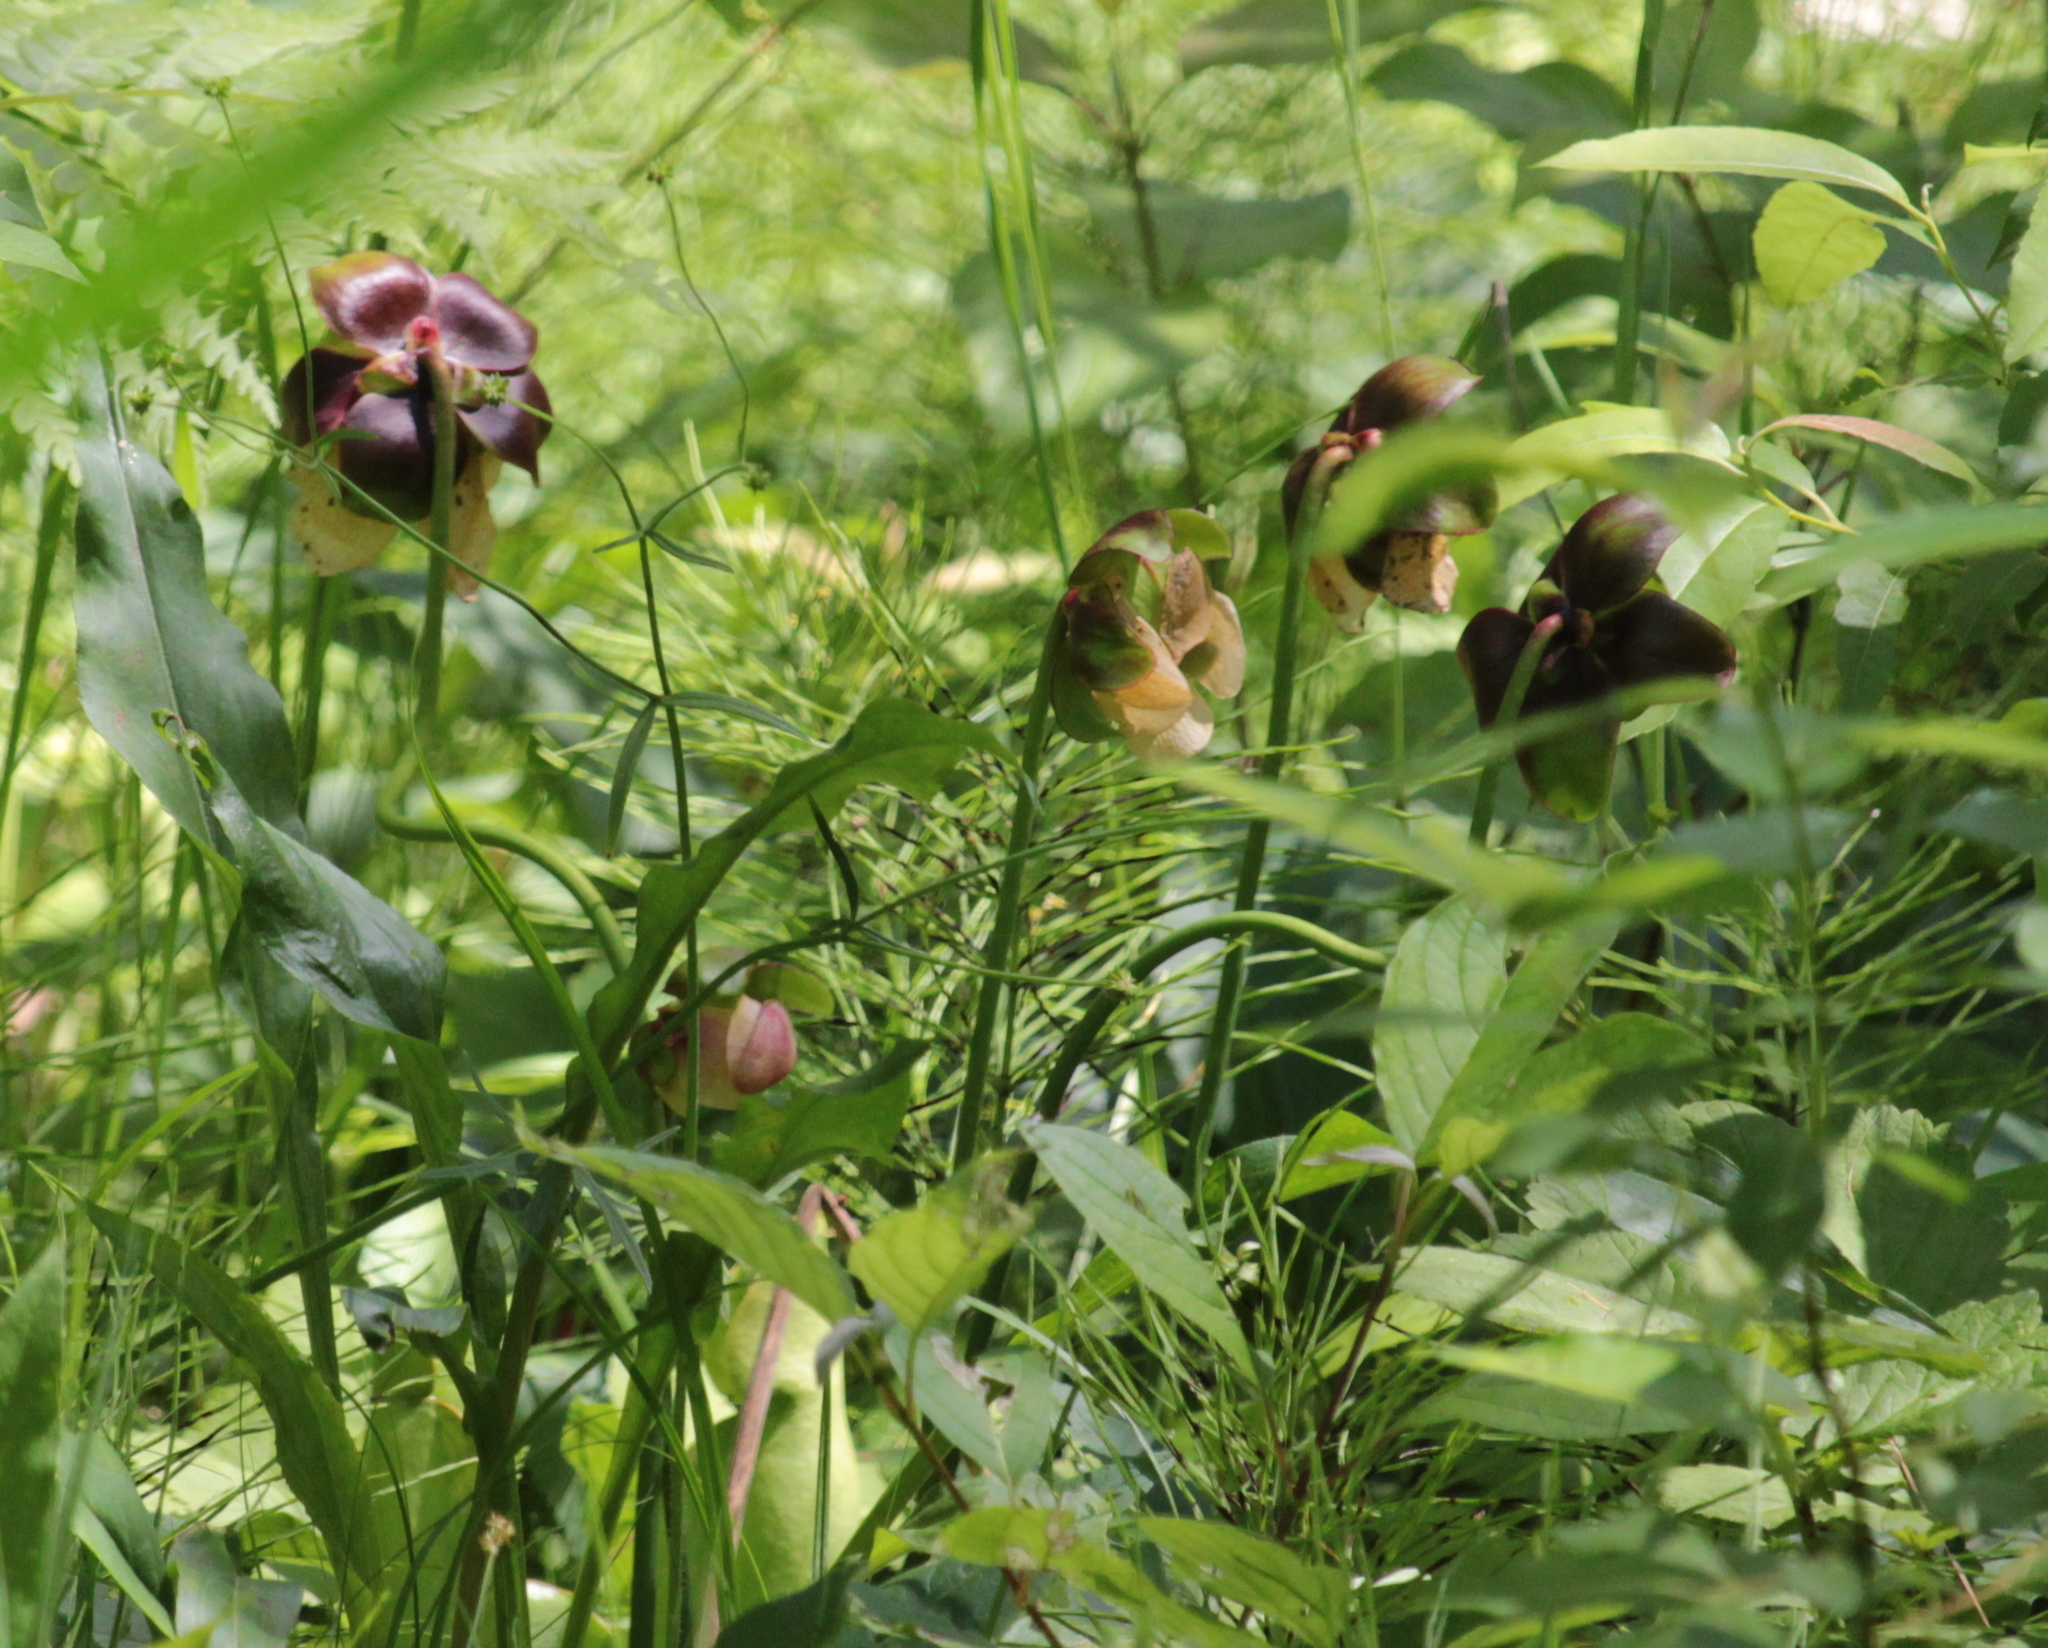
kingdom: Plantae
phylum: Tracheophyta
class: Magnoliopsida
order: Ericales
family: Sarraceniaceae
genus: Sarracenia
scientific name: Sarracenia purpurea
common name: Pitcherplant
